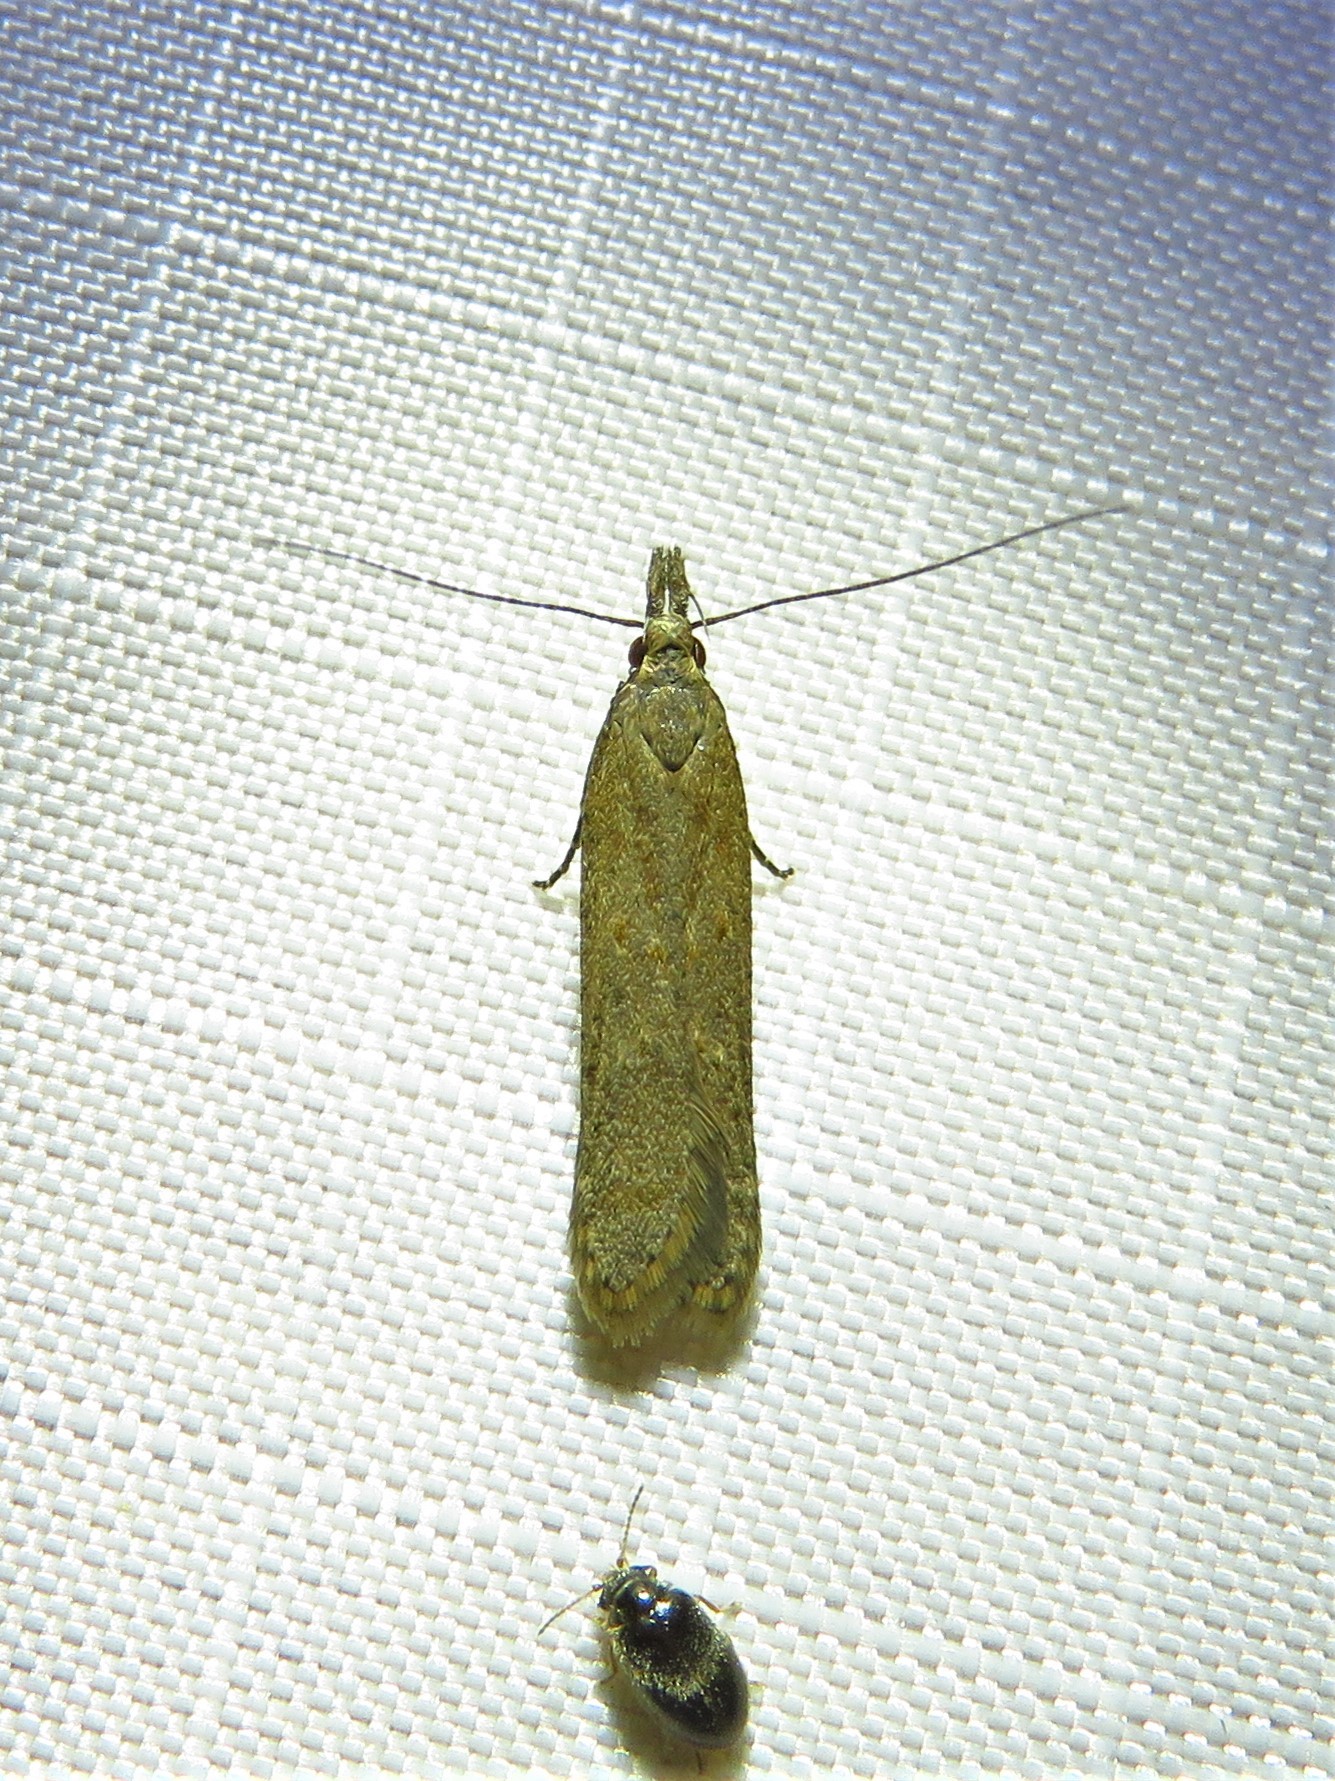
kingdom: Animalia
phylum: Arthropoda
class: Insecta
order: Lepidoptera
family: Gelechiidae
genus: Dichomeris
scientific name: Dichomeris ligulella
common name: Moth
